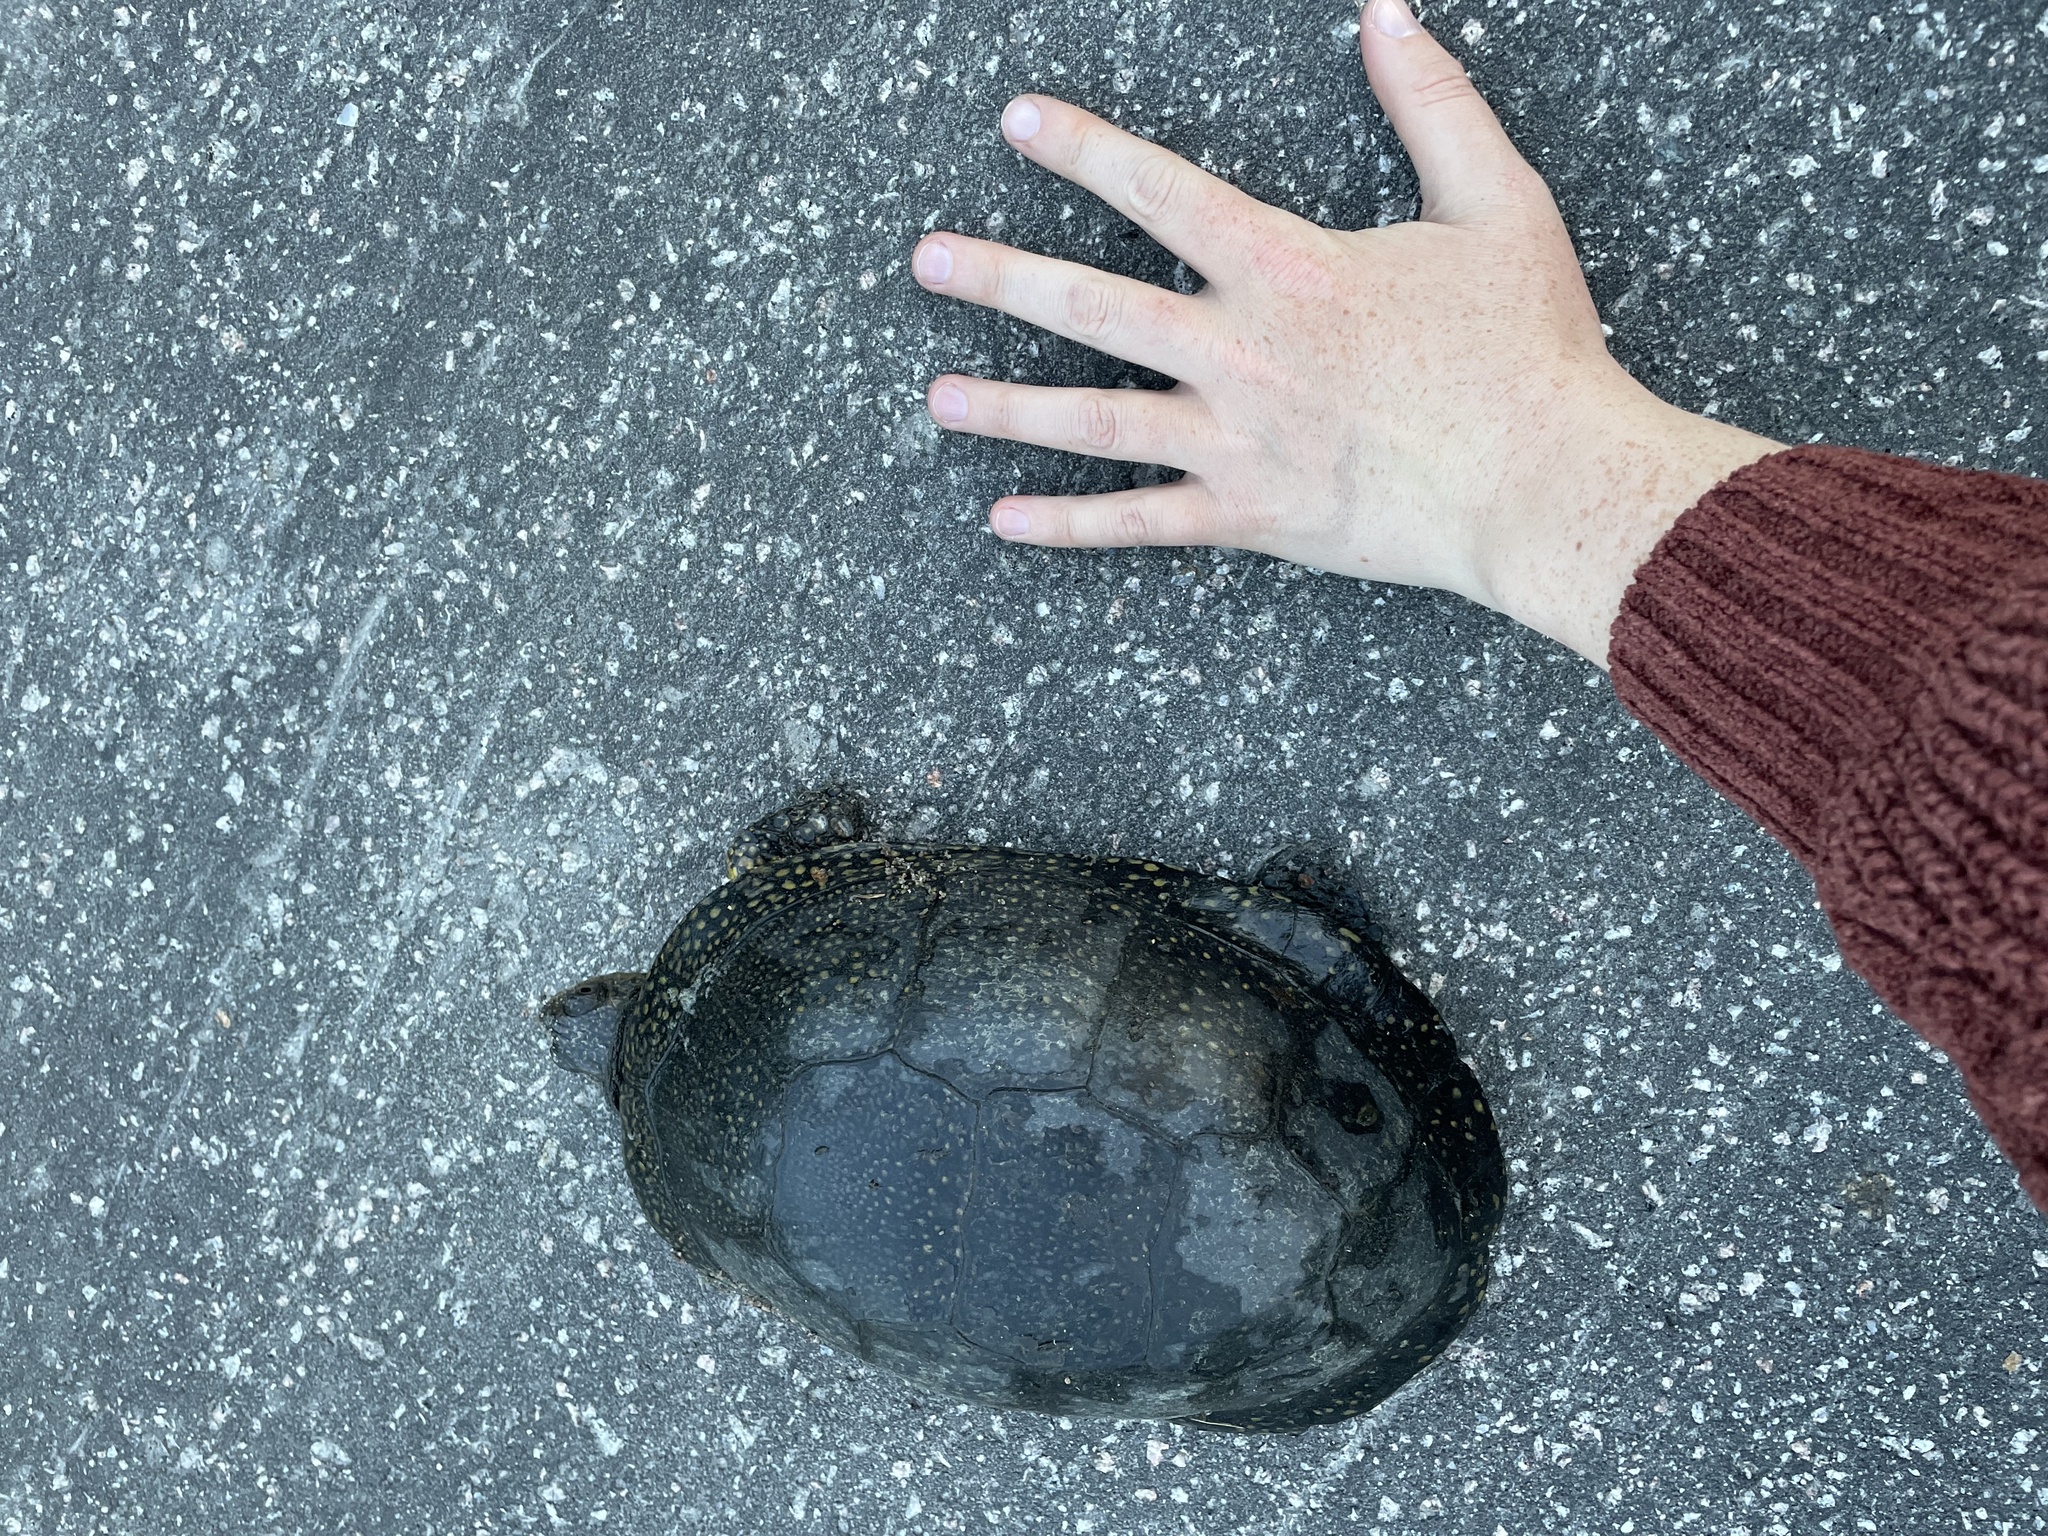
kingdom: Animalia
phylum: Chordata
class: Testudines
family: Emydidae
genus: Emys
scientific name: Emys blandingii
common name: Blanding's turtle
